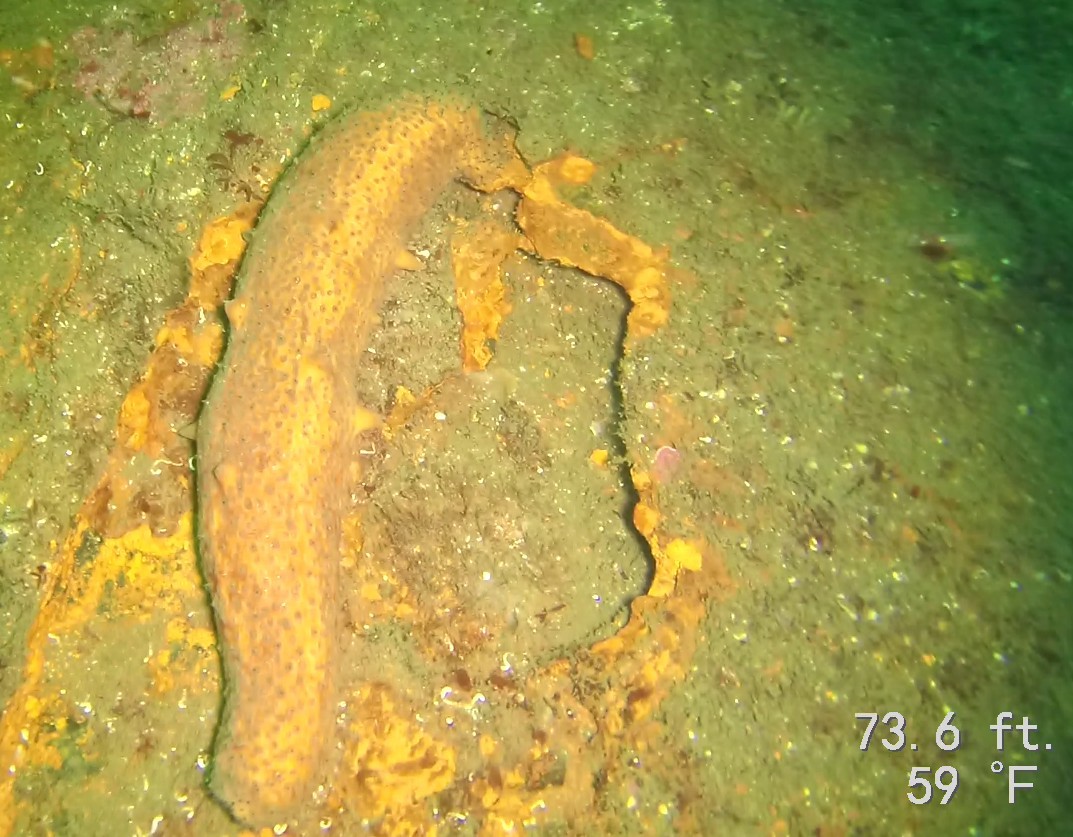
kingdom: Animalia
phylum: Echinodermata
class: Holothuroidea
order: Synallactida
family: Stichopodidae
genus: Apostichopus
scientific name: Apostichopus parvimensis
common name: Warty sea cucumber
